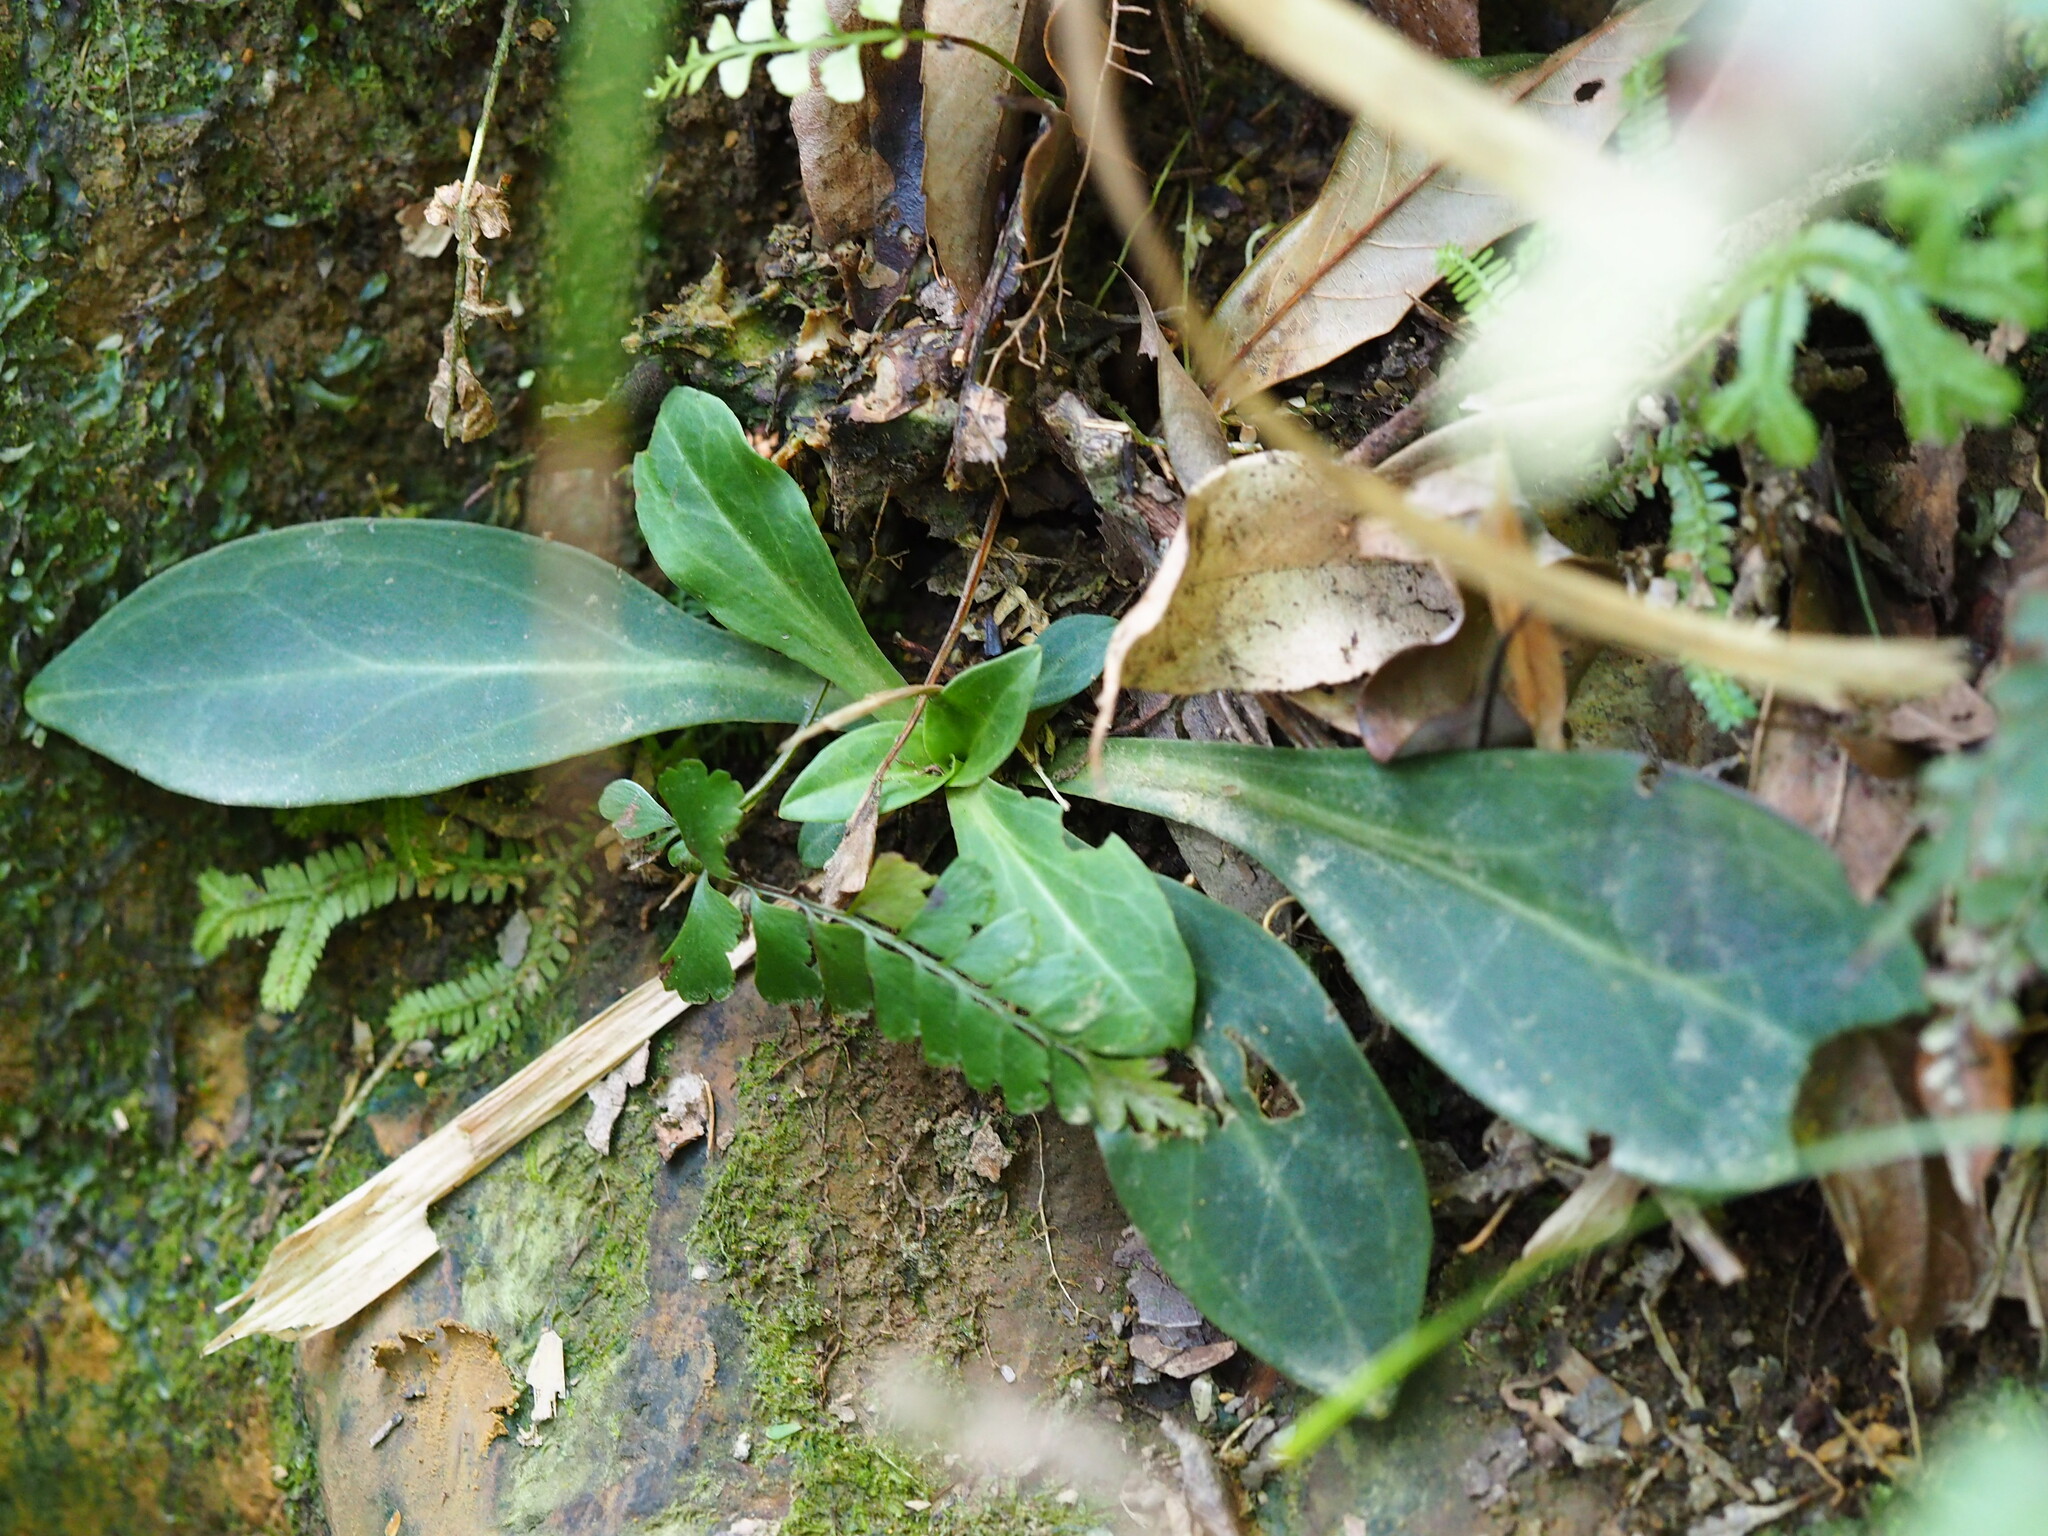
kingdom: Plantae
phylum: Tracheophyta
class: Magnoliopsida
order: Gentianales
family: Gentianaceae
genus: Swertia
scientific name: Swertia shintenensis
